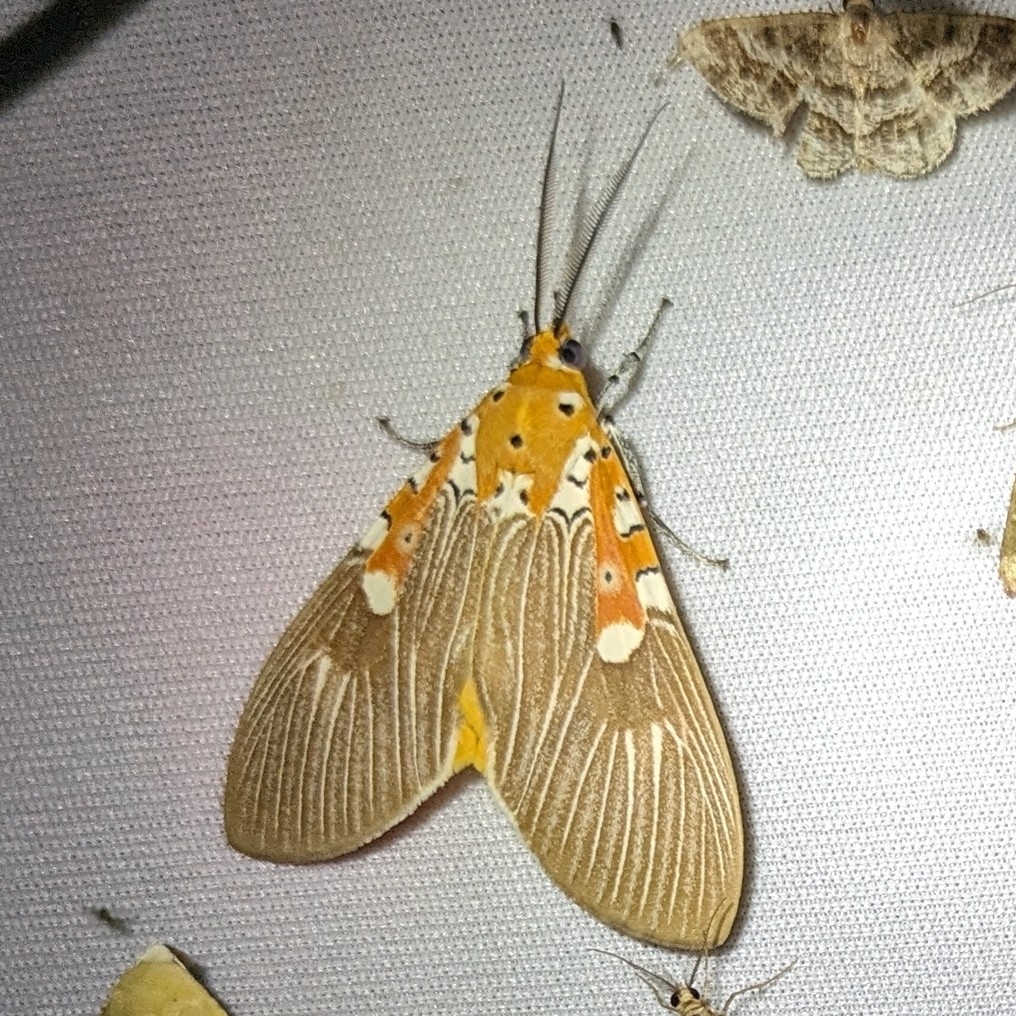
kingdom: Animalia
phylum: Arthropoda
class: Insecta
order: Lepidoptera
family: Erebidae
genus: Asota
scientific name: Asota ficus
